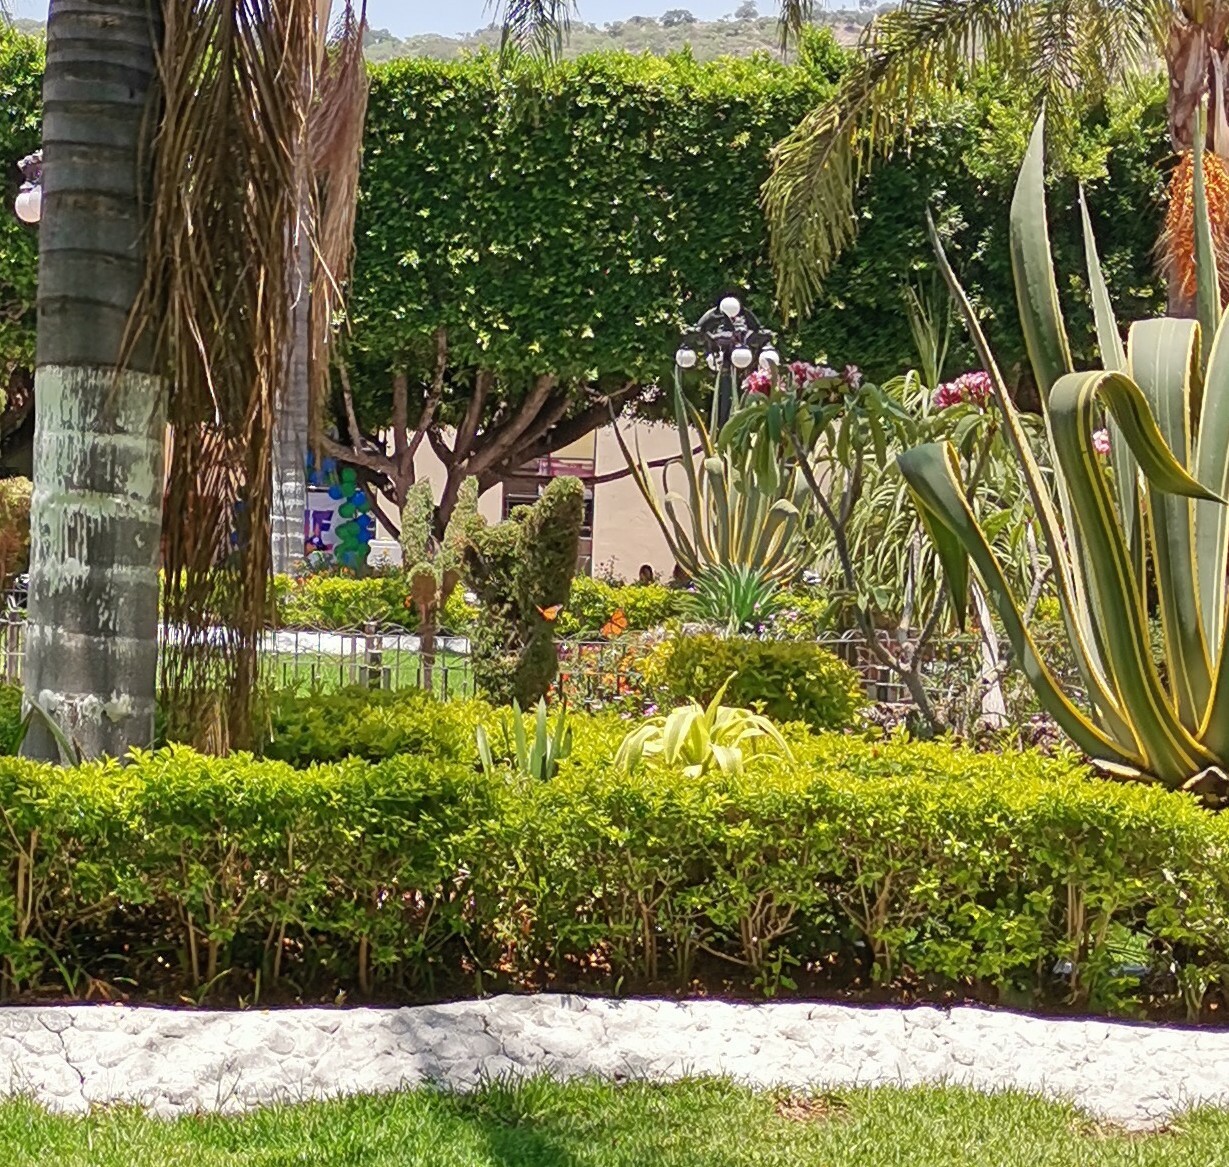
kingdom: Animalia
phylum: Arthropoda
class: Insecta
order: Lepidoptera
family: Nymphalidae
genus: Danaus
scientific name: Danaus plexippus
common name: Monarch
